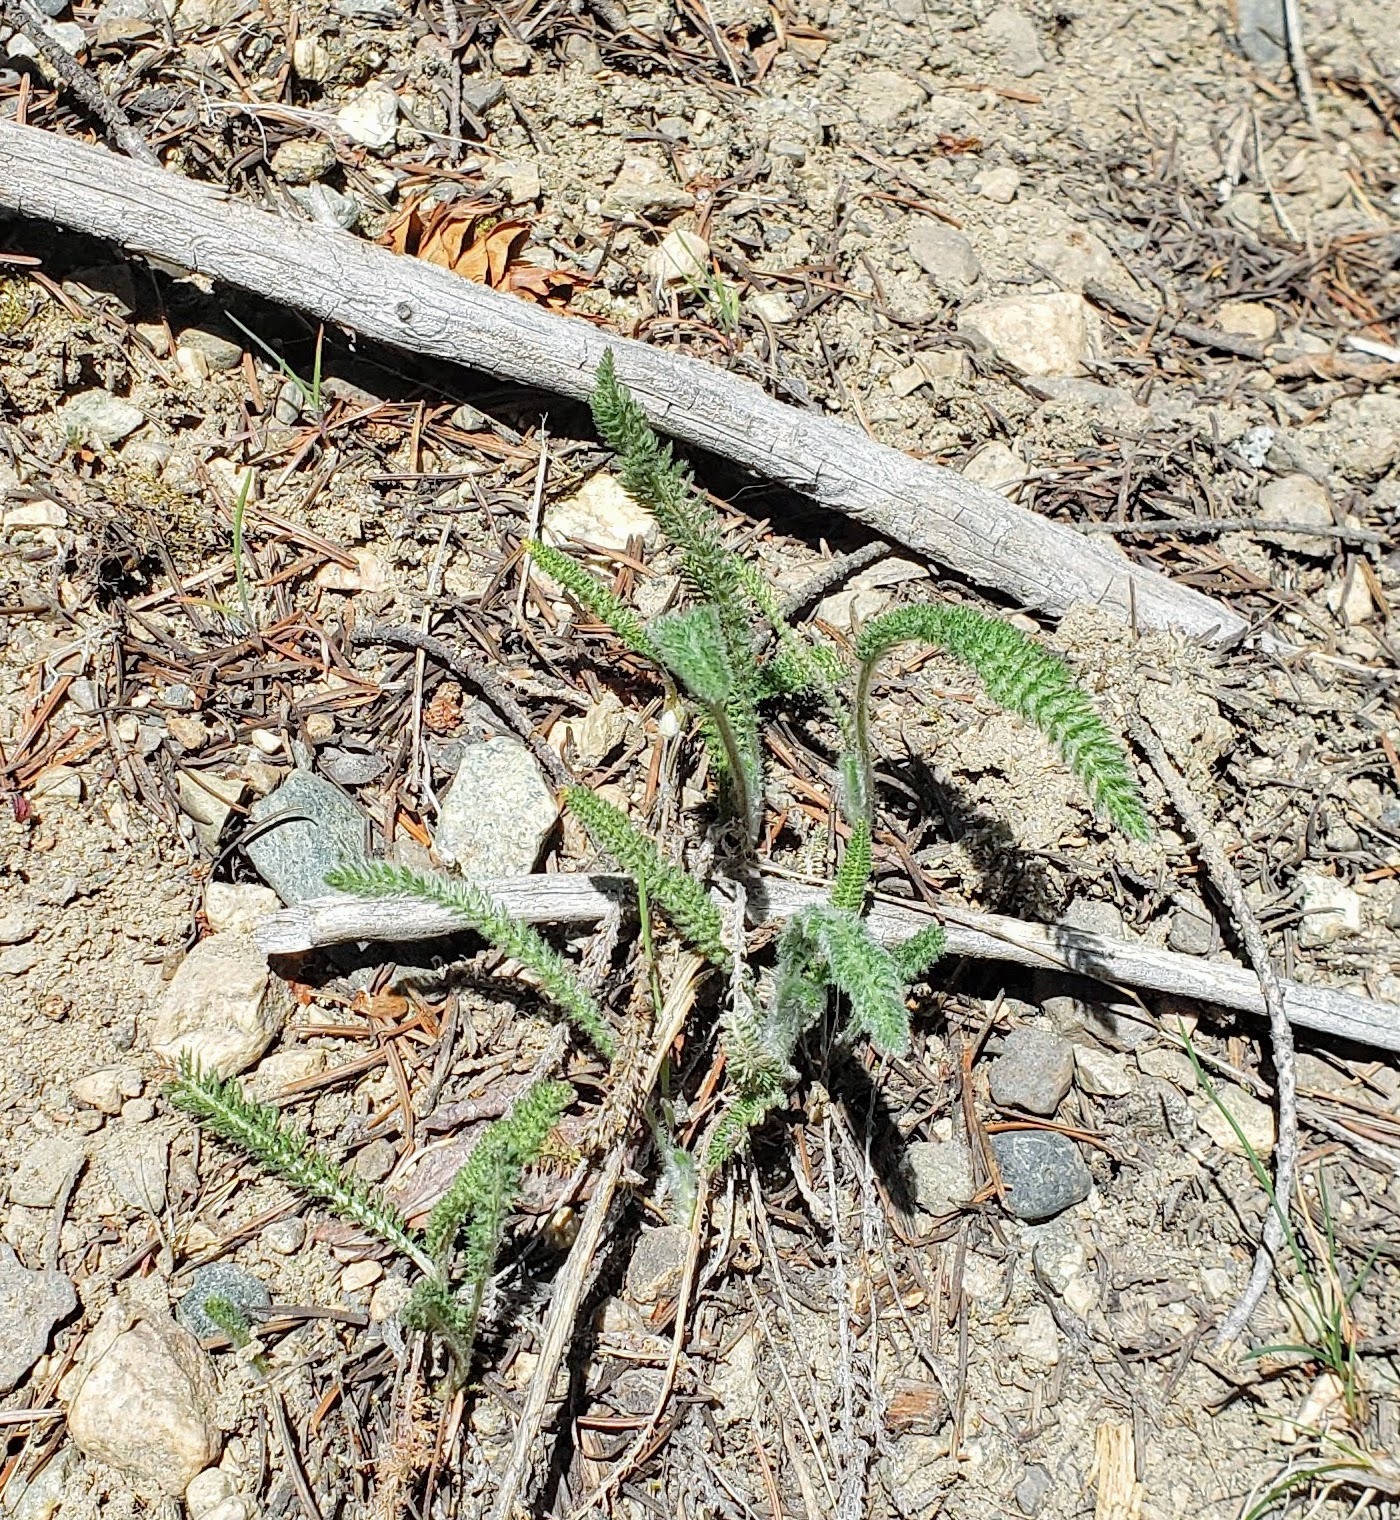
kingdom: Plantae
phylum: Tracheophyta
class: Magnoliopsida
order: Asterales
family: Asteraceae
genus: Achillea
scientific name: Achillea millefolium
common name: Yarrow
